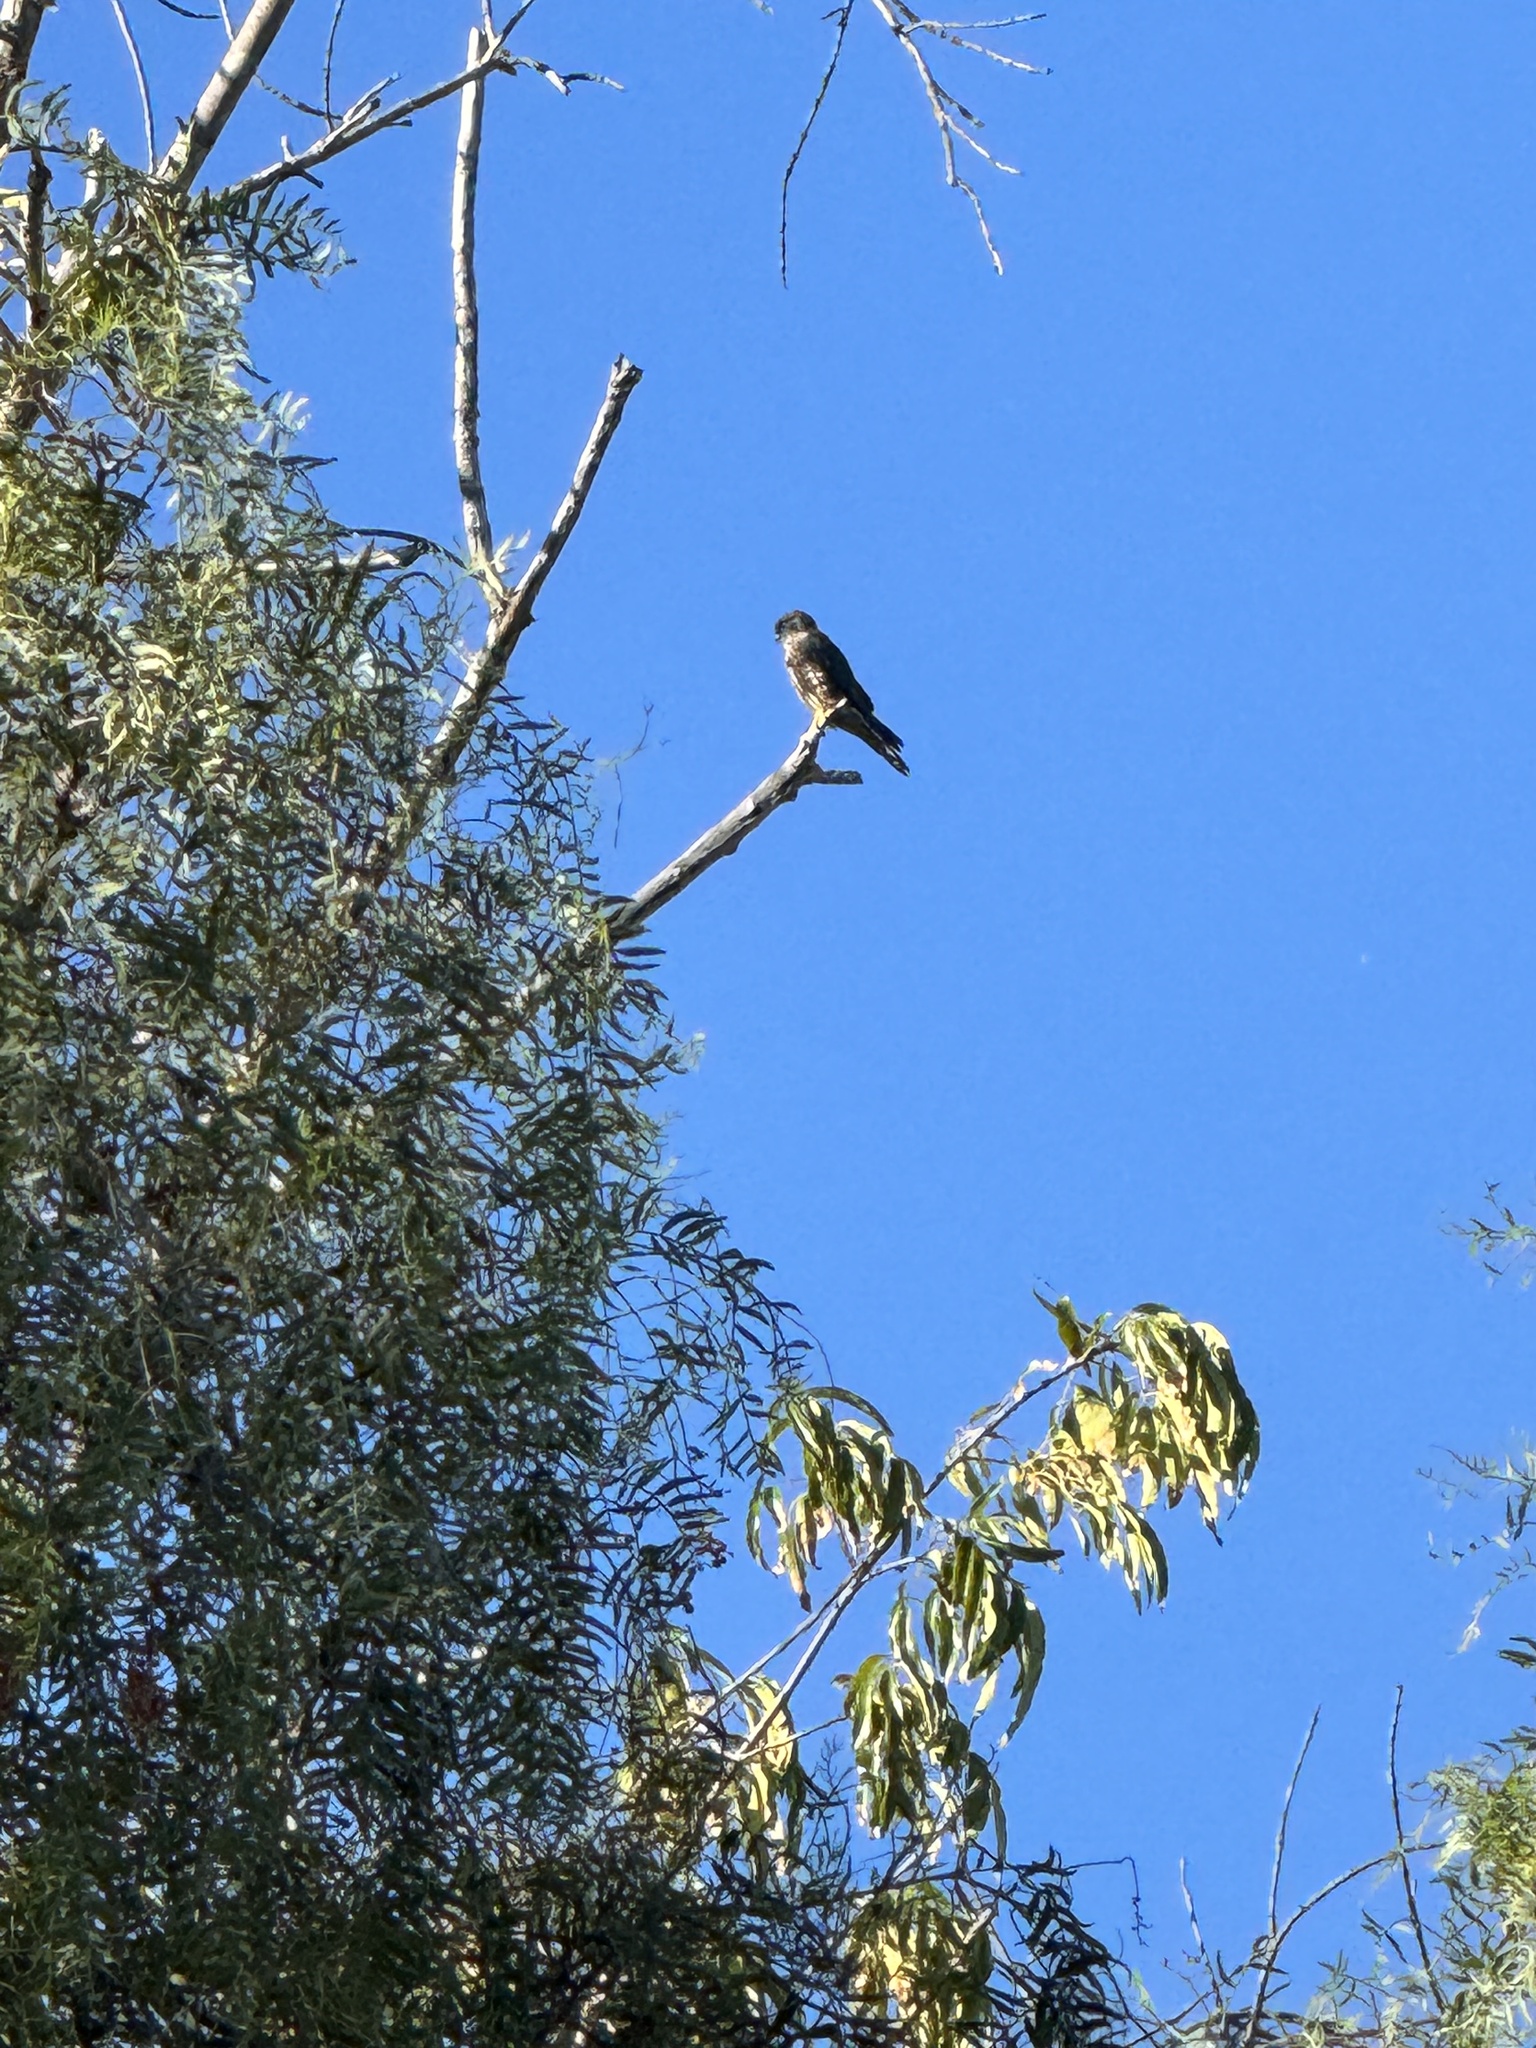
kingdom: Animalia
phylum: Chordata
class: Aves
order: Falconiformes
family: Falconidae
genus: Falco
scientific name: Falco columbarius
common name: Merlin
